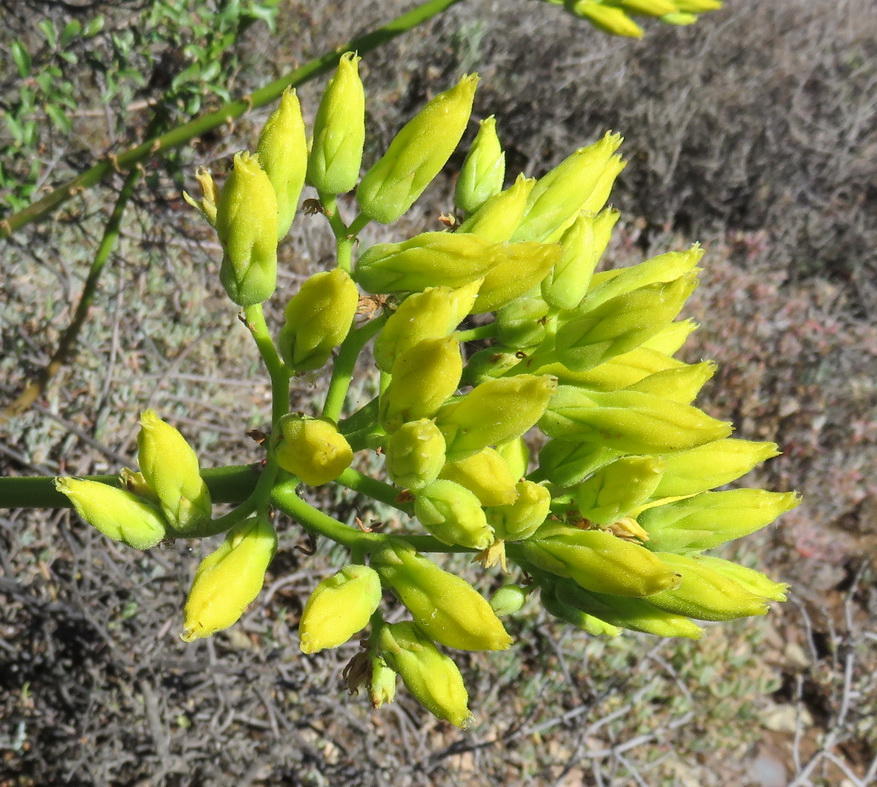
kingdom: Plantae
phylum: Tracheophyta
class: Magnoliopsida
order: Saxifragales
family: Crassulaceae
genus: Tylecodon
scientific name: Tylecodon cacaliodes
